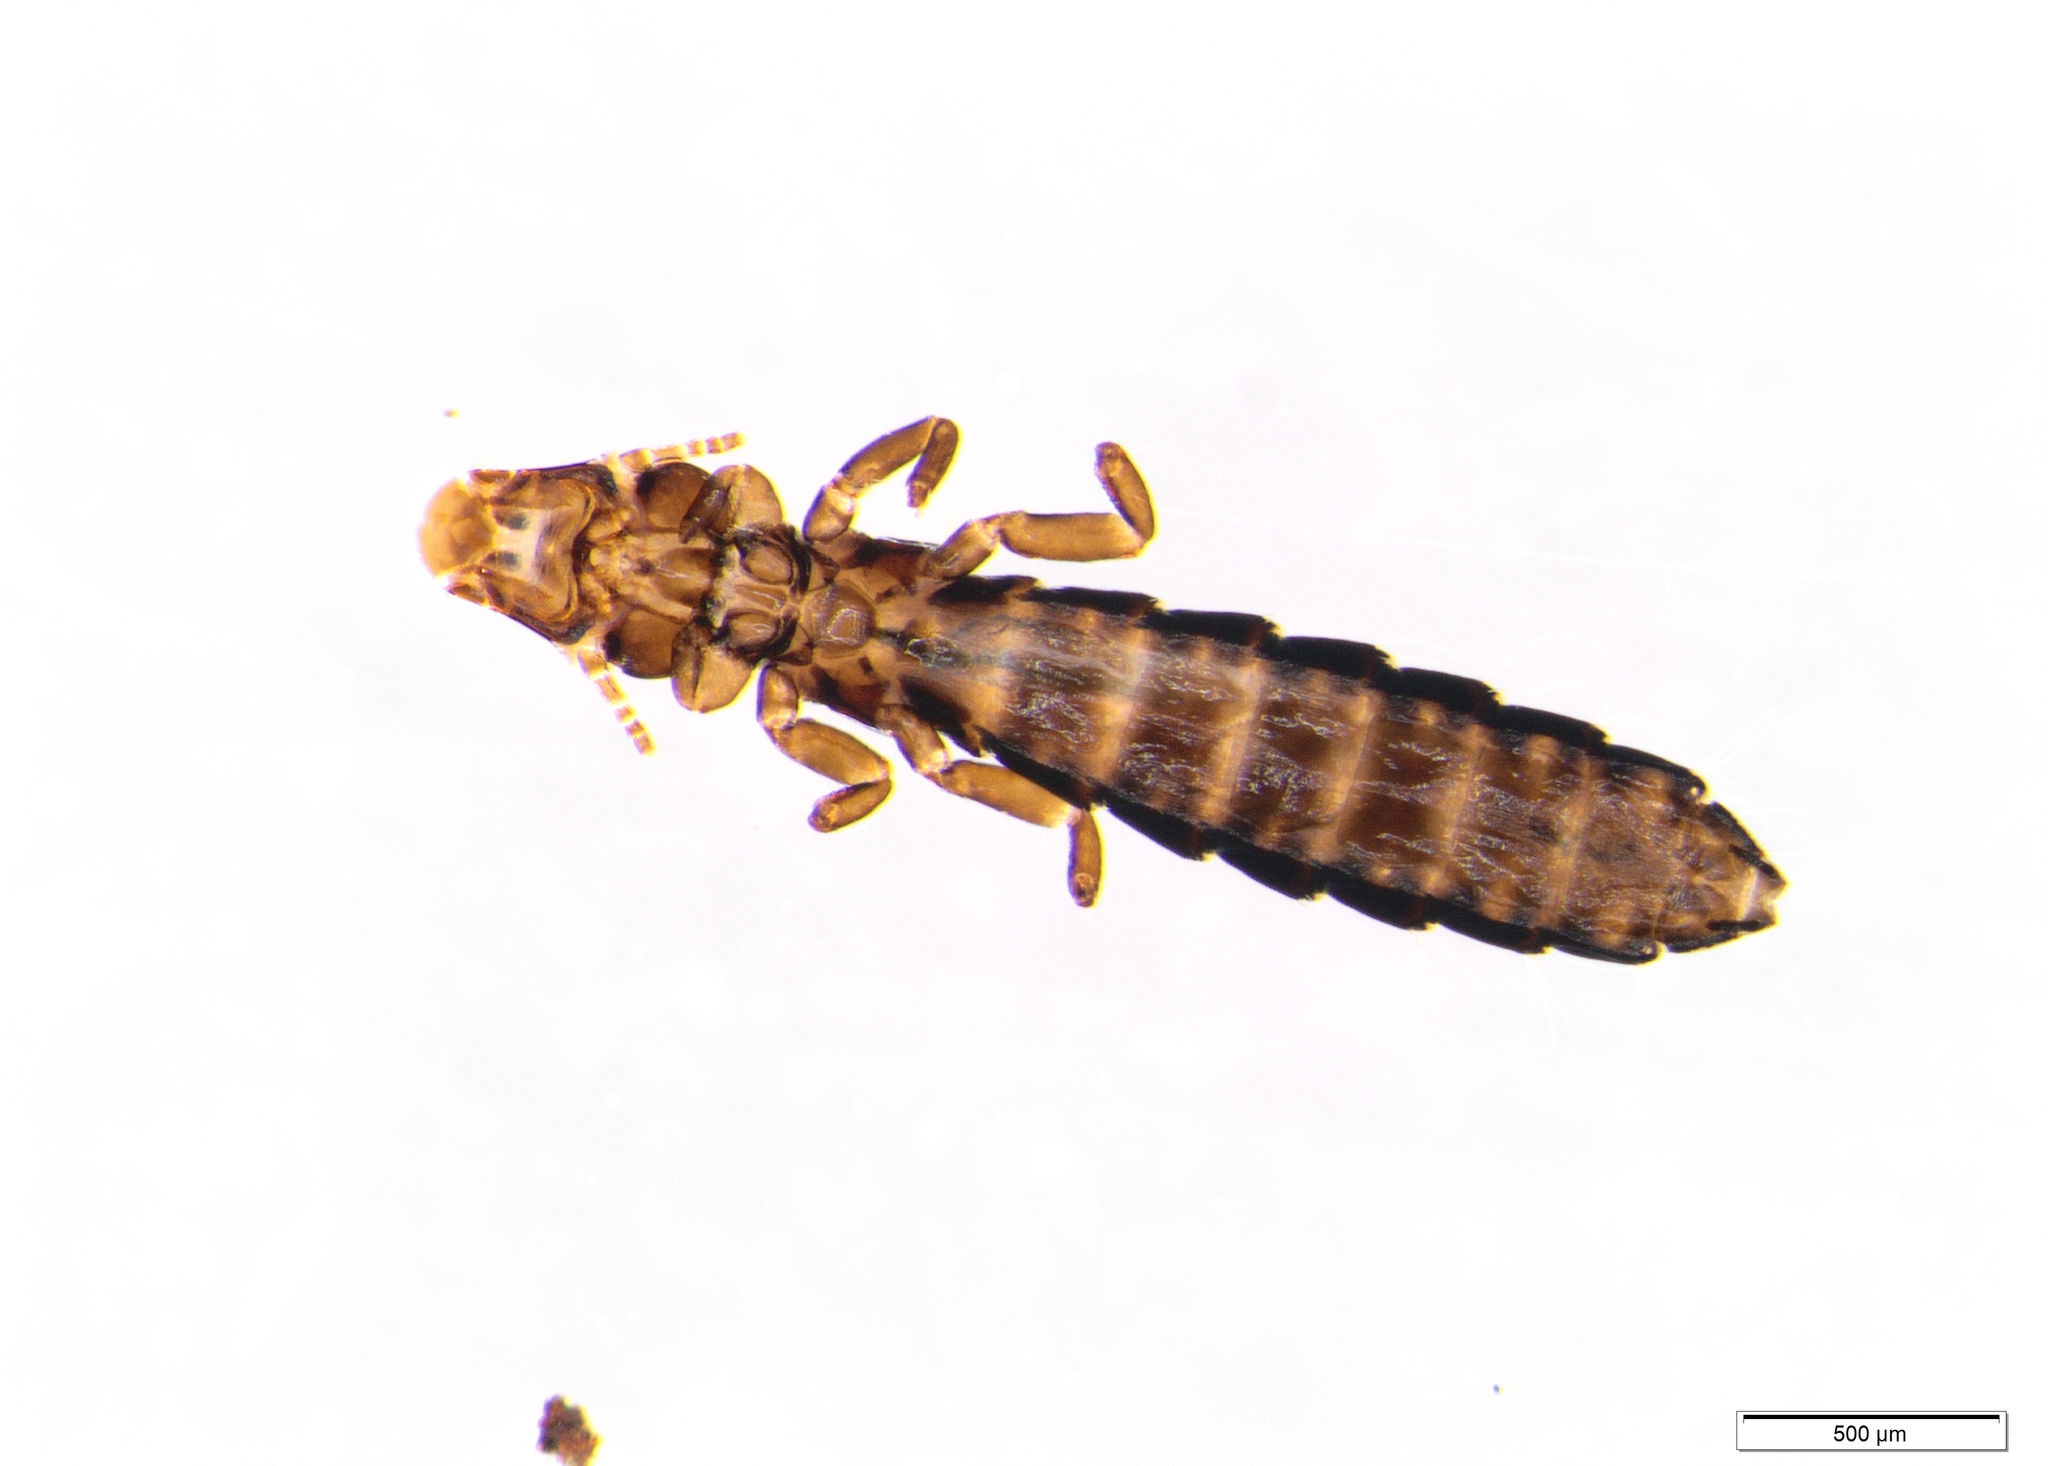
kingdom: Animalia
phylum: Arthropoda
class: Insecta
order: Psocodea
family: Philopteridae
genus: Naubates
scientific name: Naubates prioni
